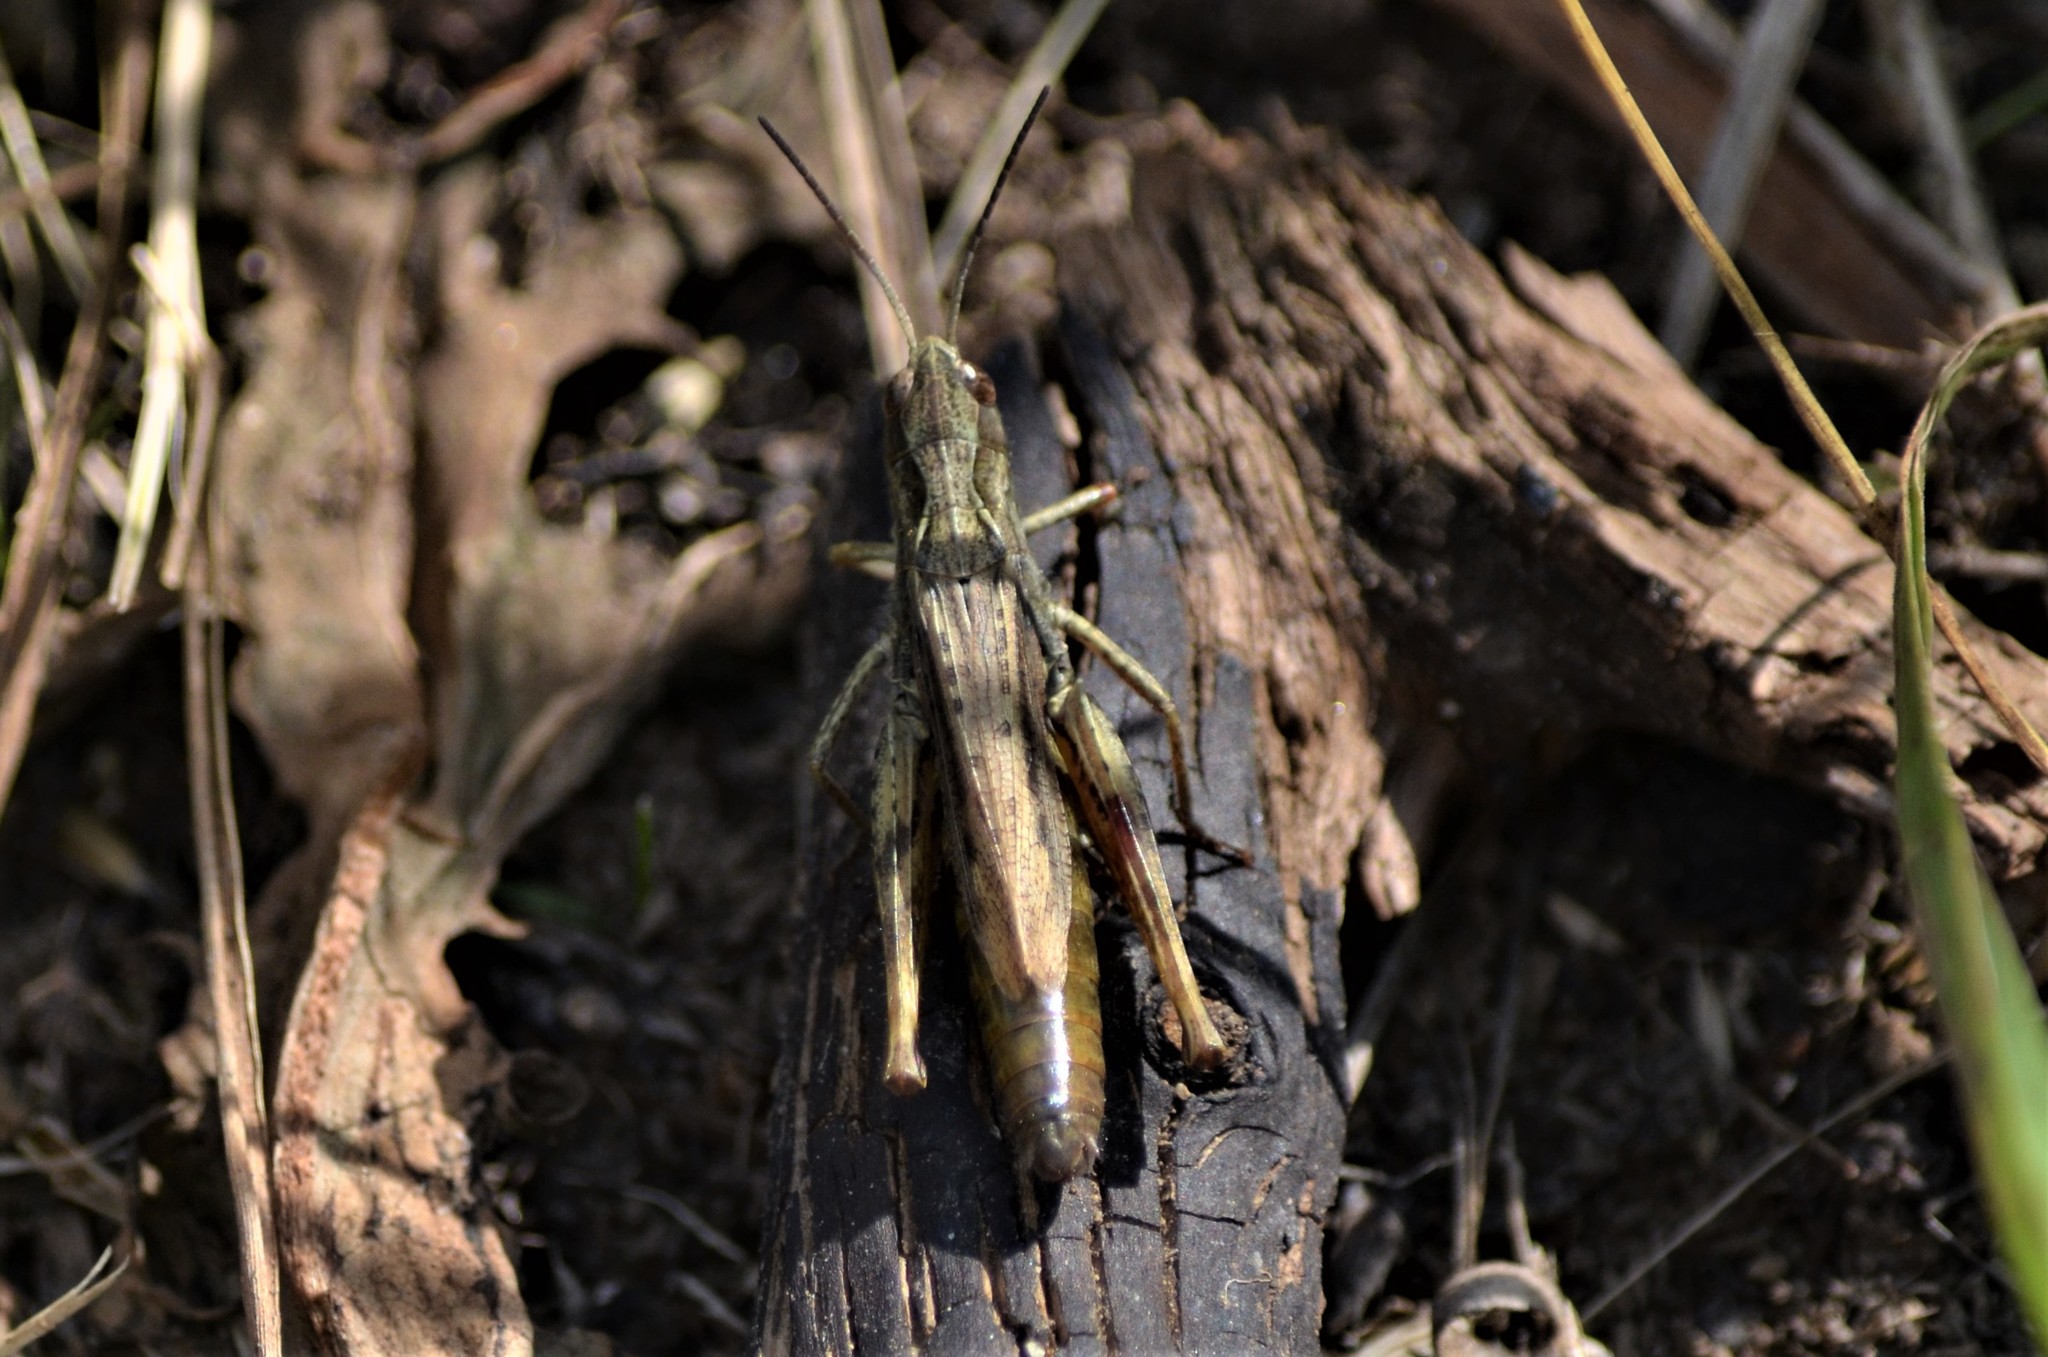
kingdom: Animalia
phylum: Arthropoda
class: Insecta
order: Orthoptera
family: Acrididae
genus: Chorthippus
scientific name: Chorthippus apricarius
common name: Upland field grasshopper
